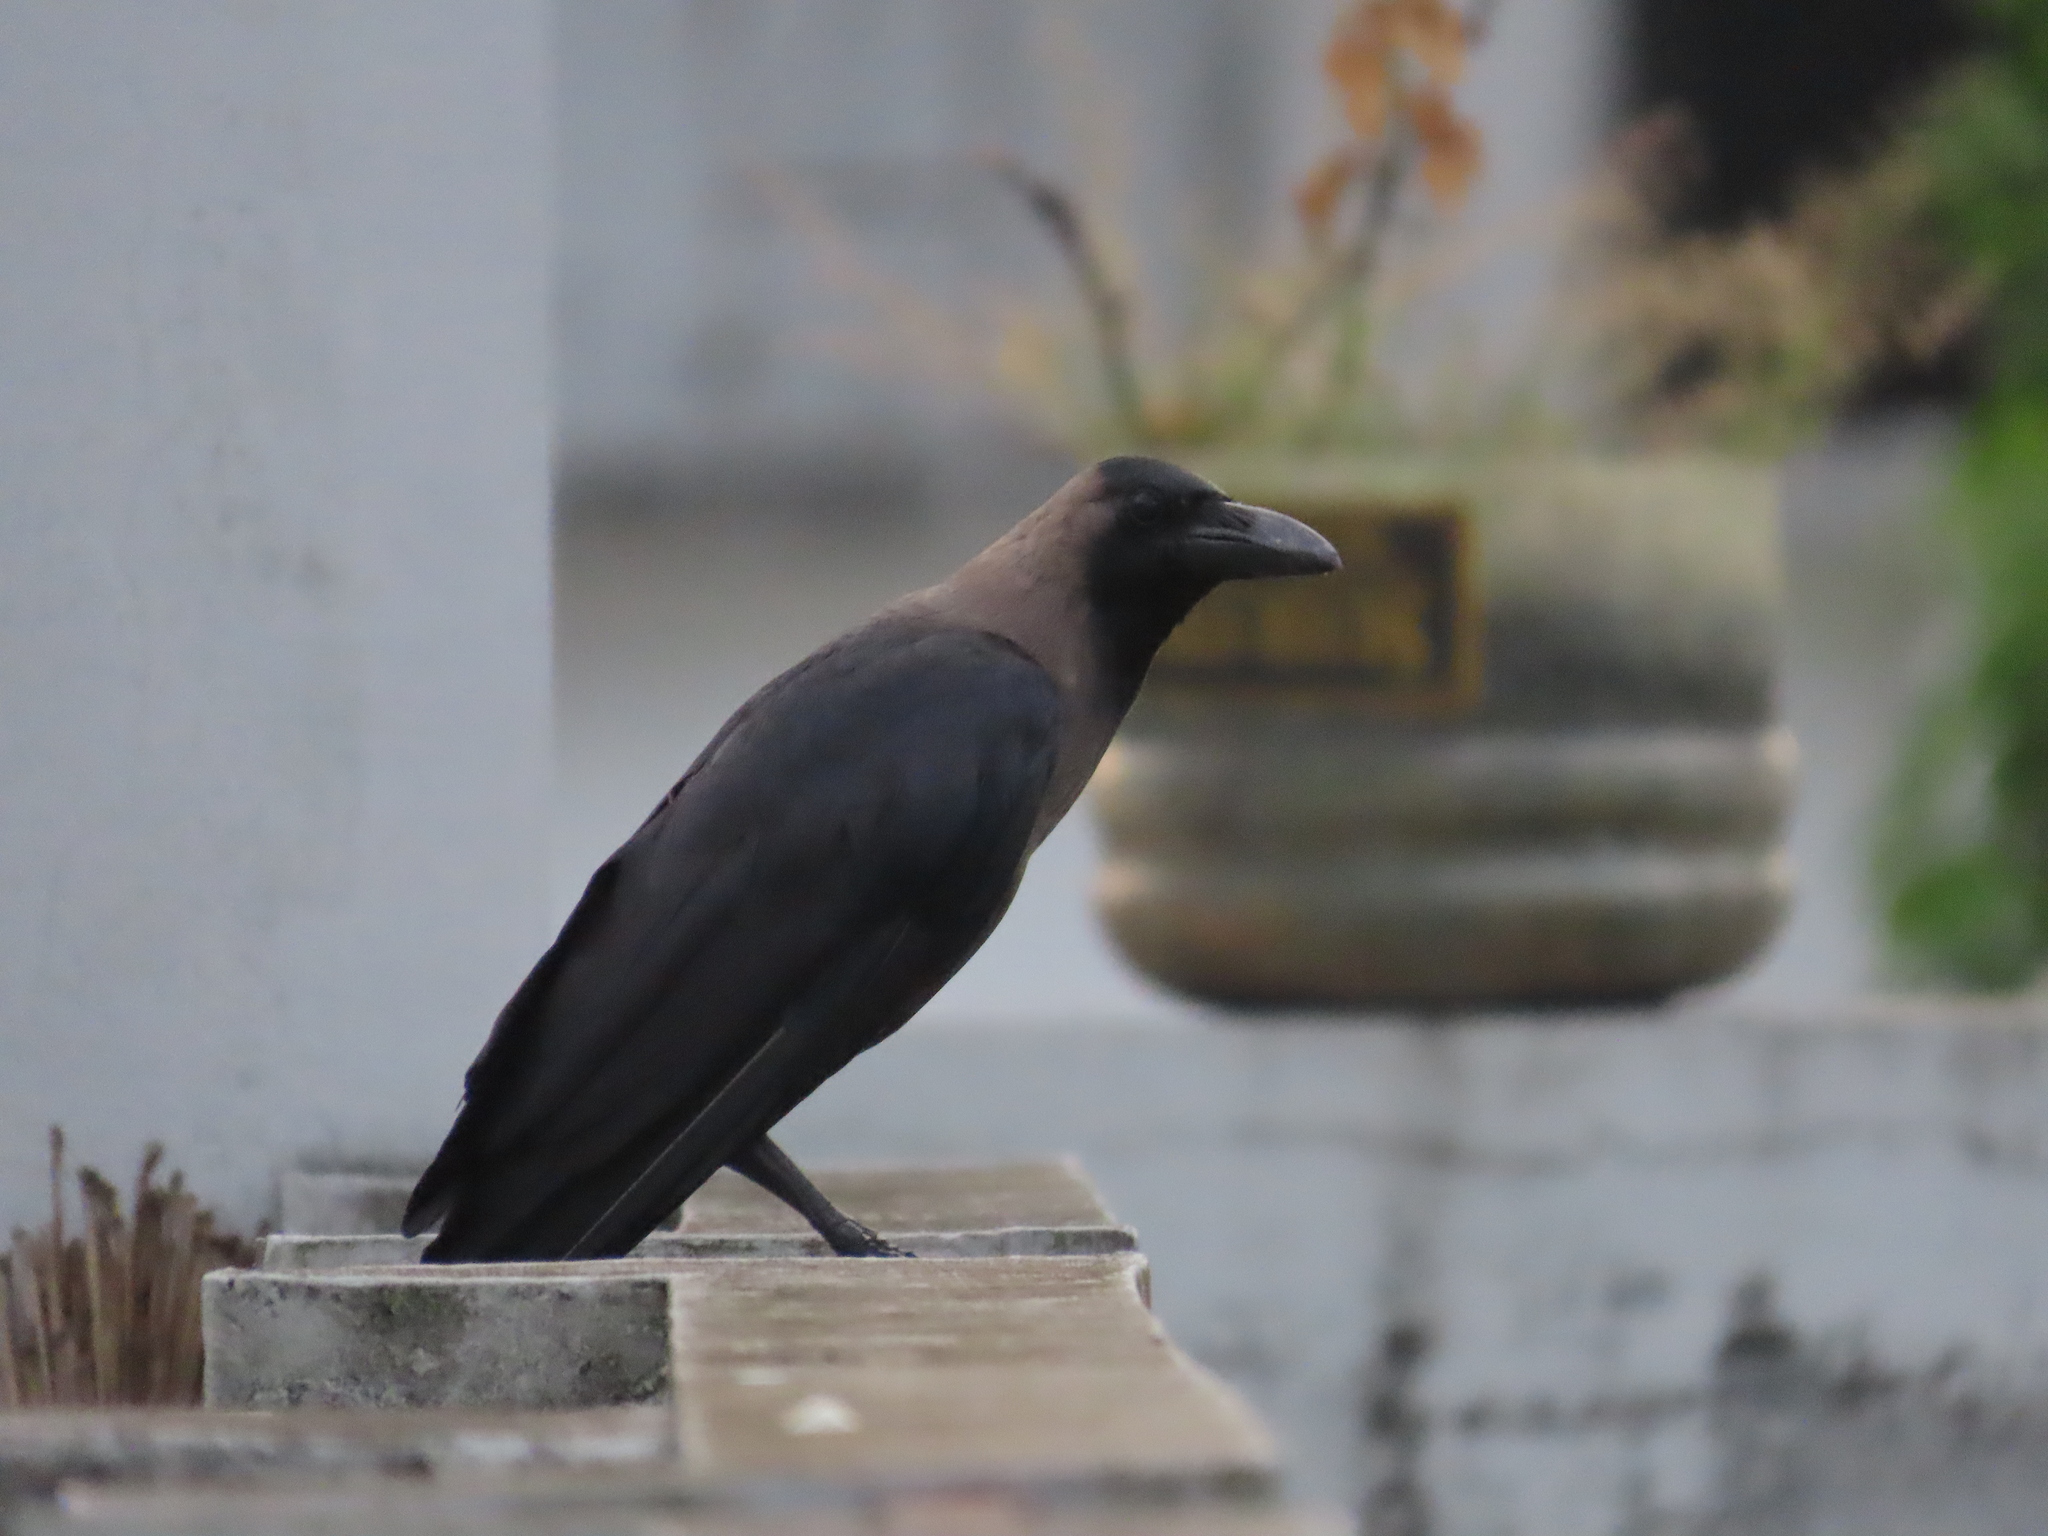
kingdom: Animalia
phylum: Chordata
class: Aves
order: Passeriformes
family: Corvidae
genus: Corvus
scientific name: Corvus splendens
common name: House crow
